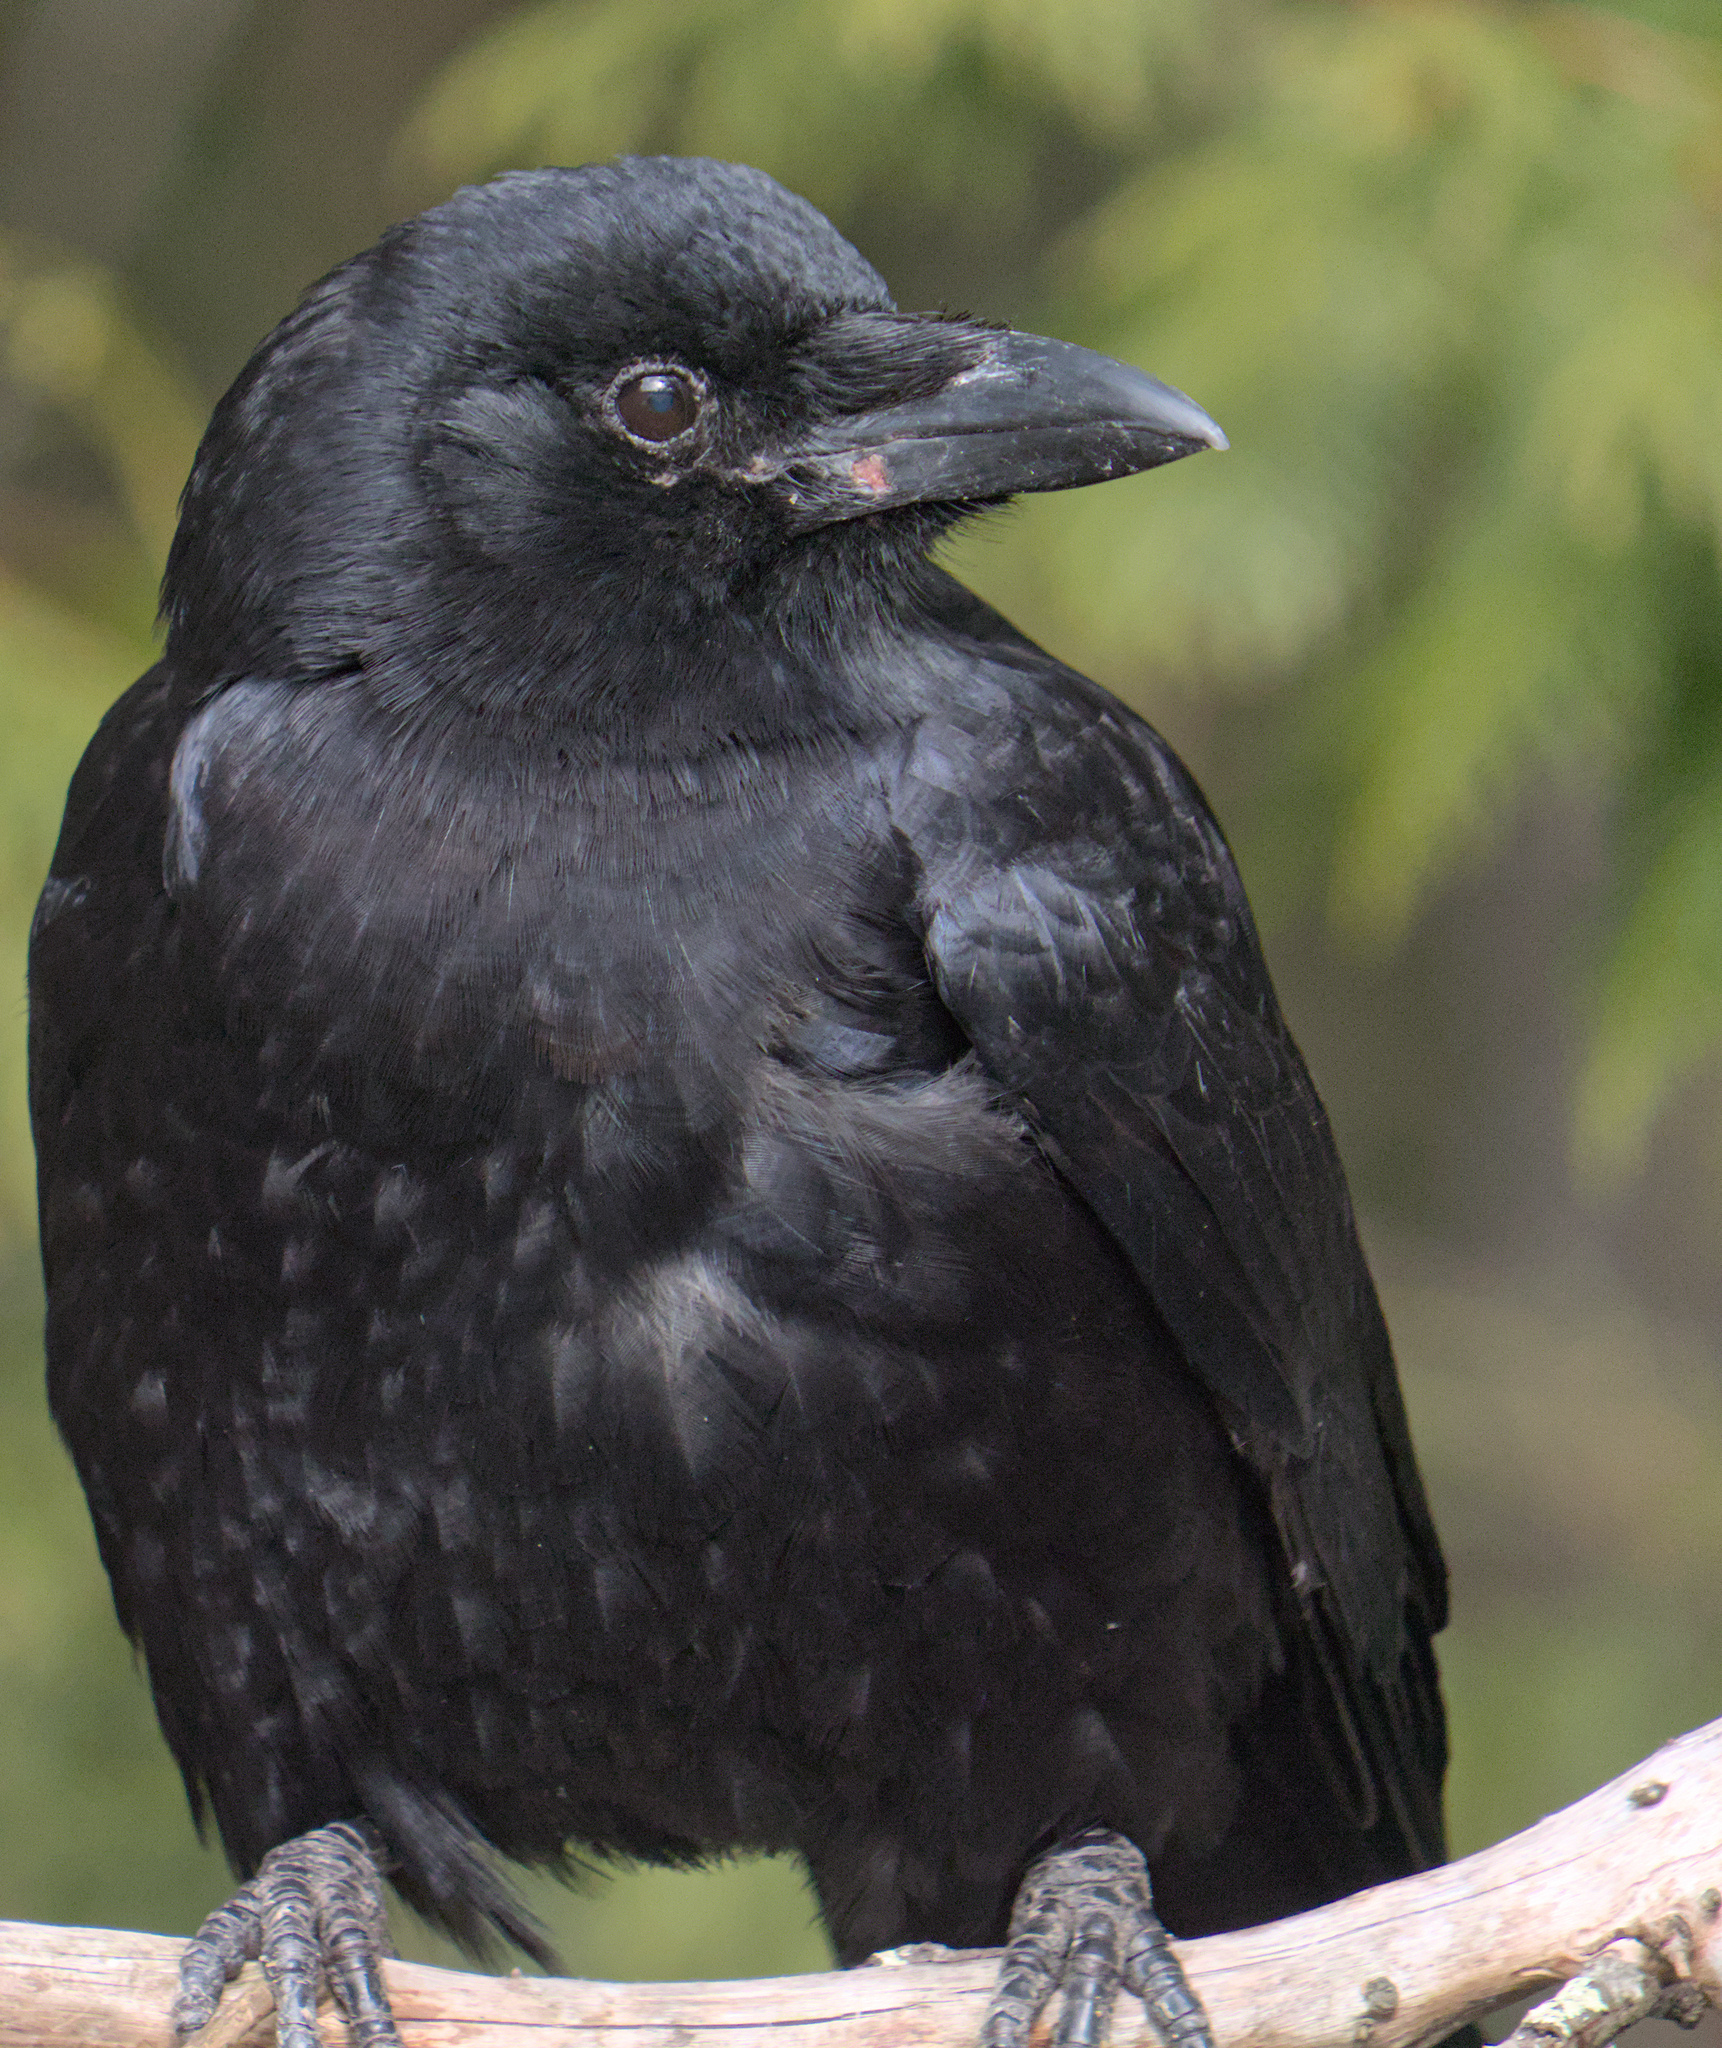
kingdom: Animalia
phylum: Chordata
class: Aves
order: Passeriformes
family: Corvidae
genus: Corvus
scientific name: Corvus brachyrhynchos
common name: American crow
